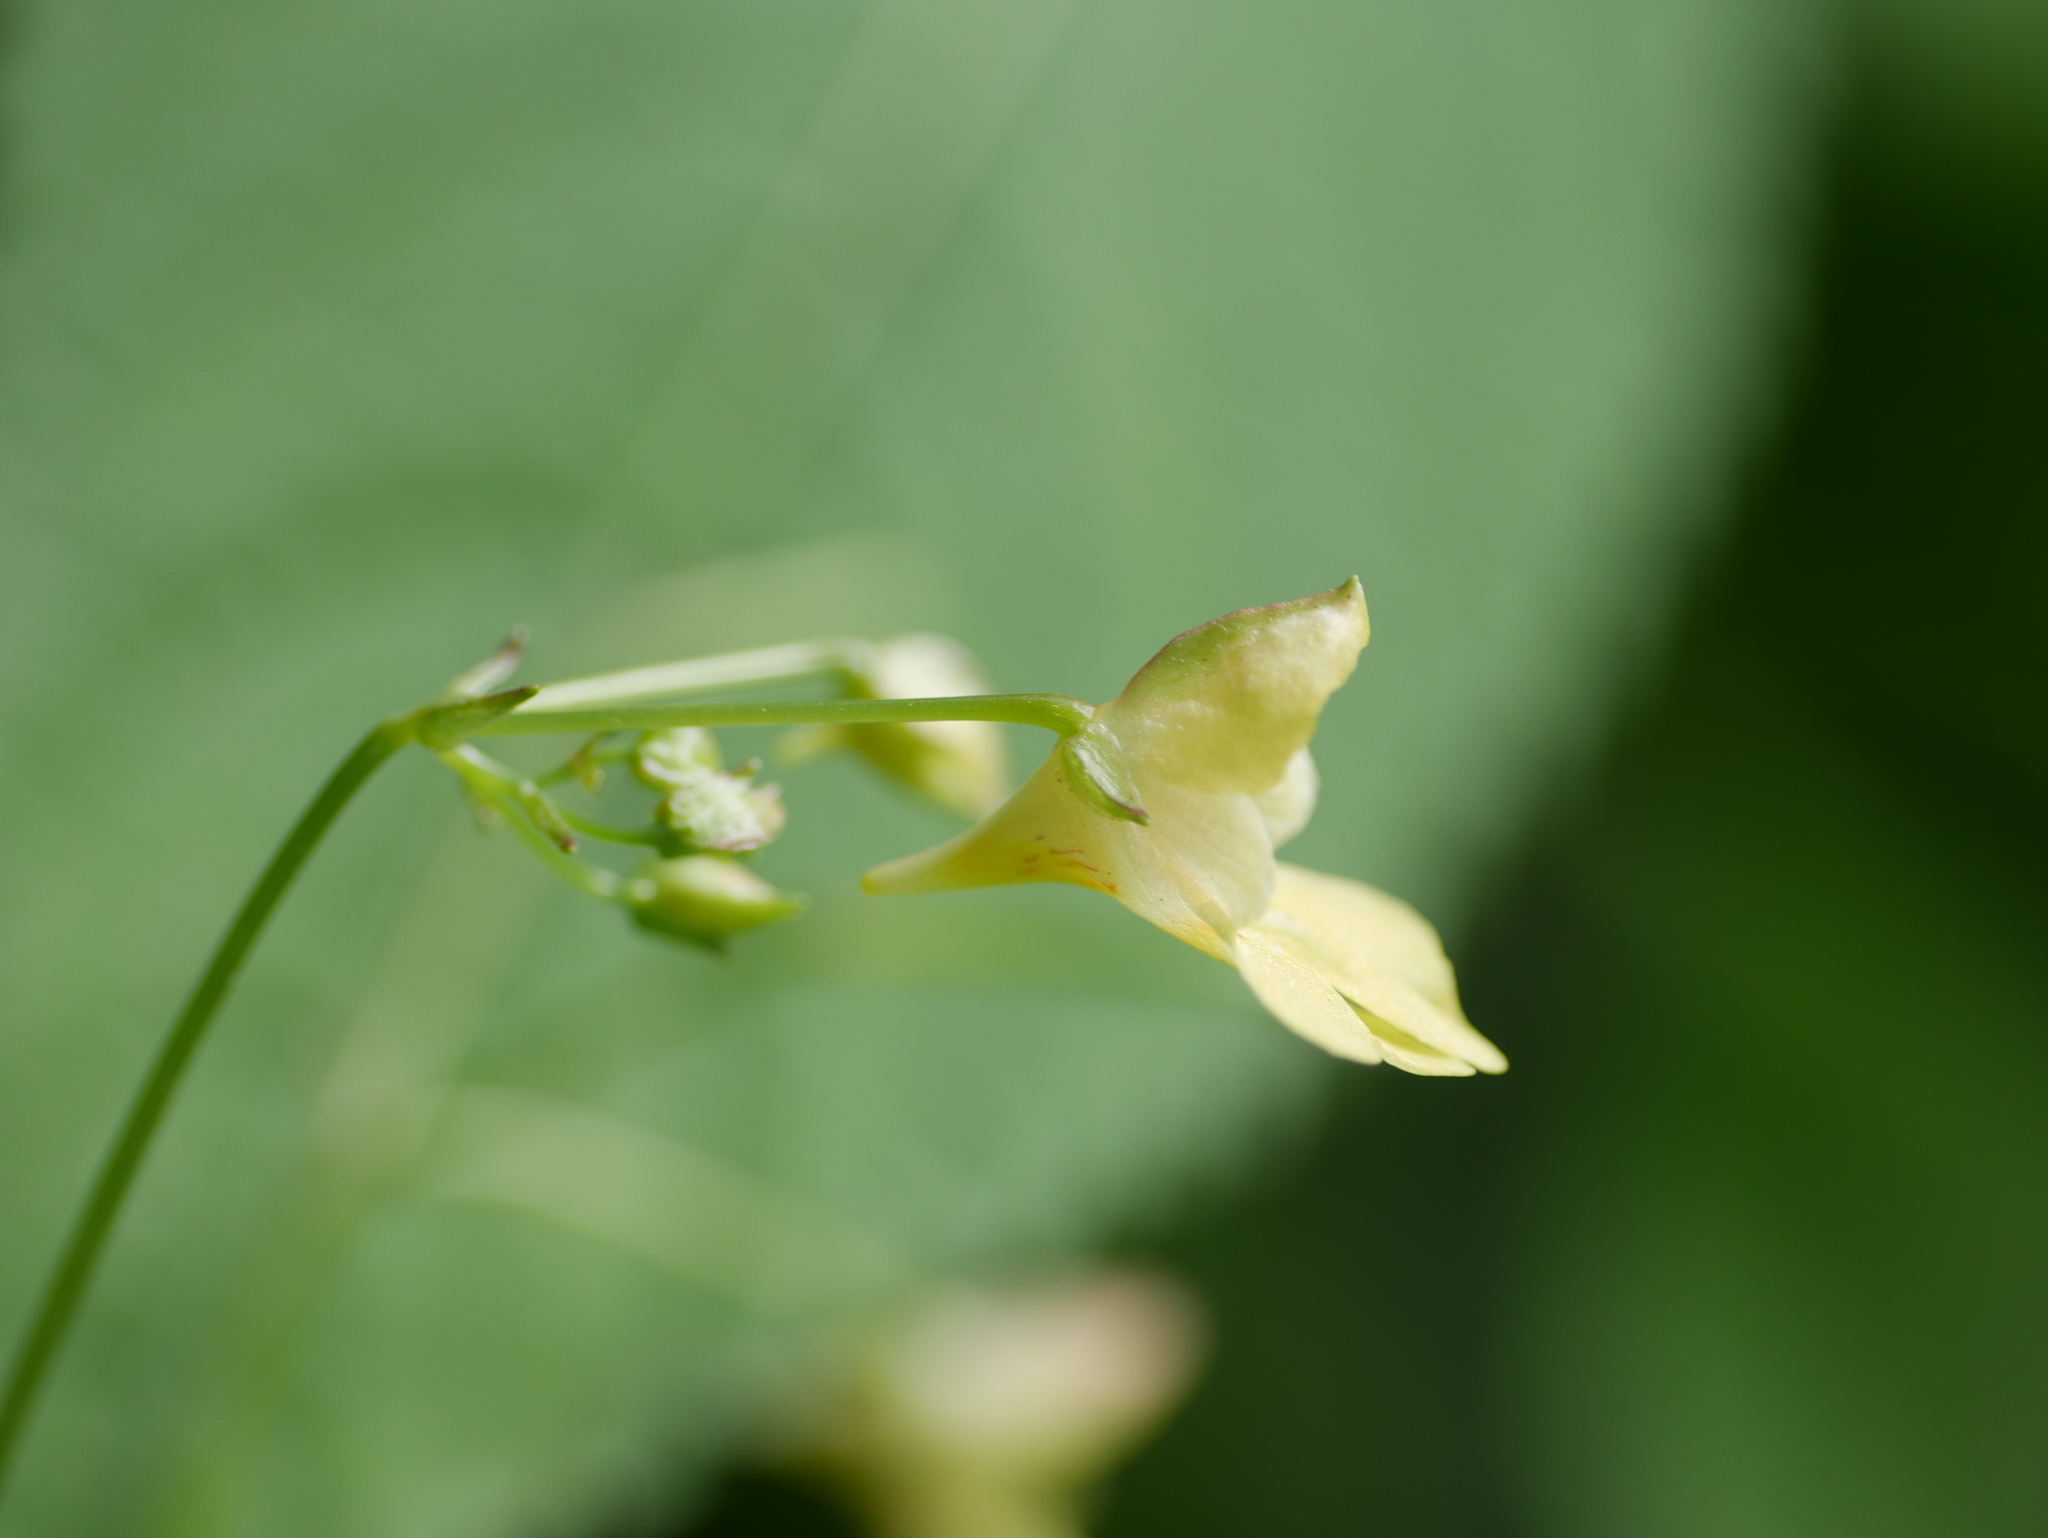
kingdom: Plantae
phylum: Tracheophyta
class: Magnoliopsida
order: Ericales
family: Balsaminaceae
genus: Impatiens
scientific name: Impatiens parviflora
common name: Small balsam
